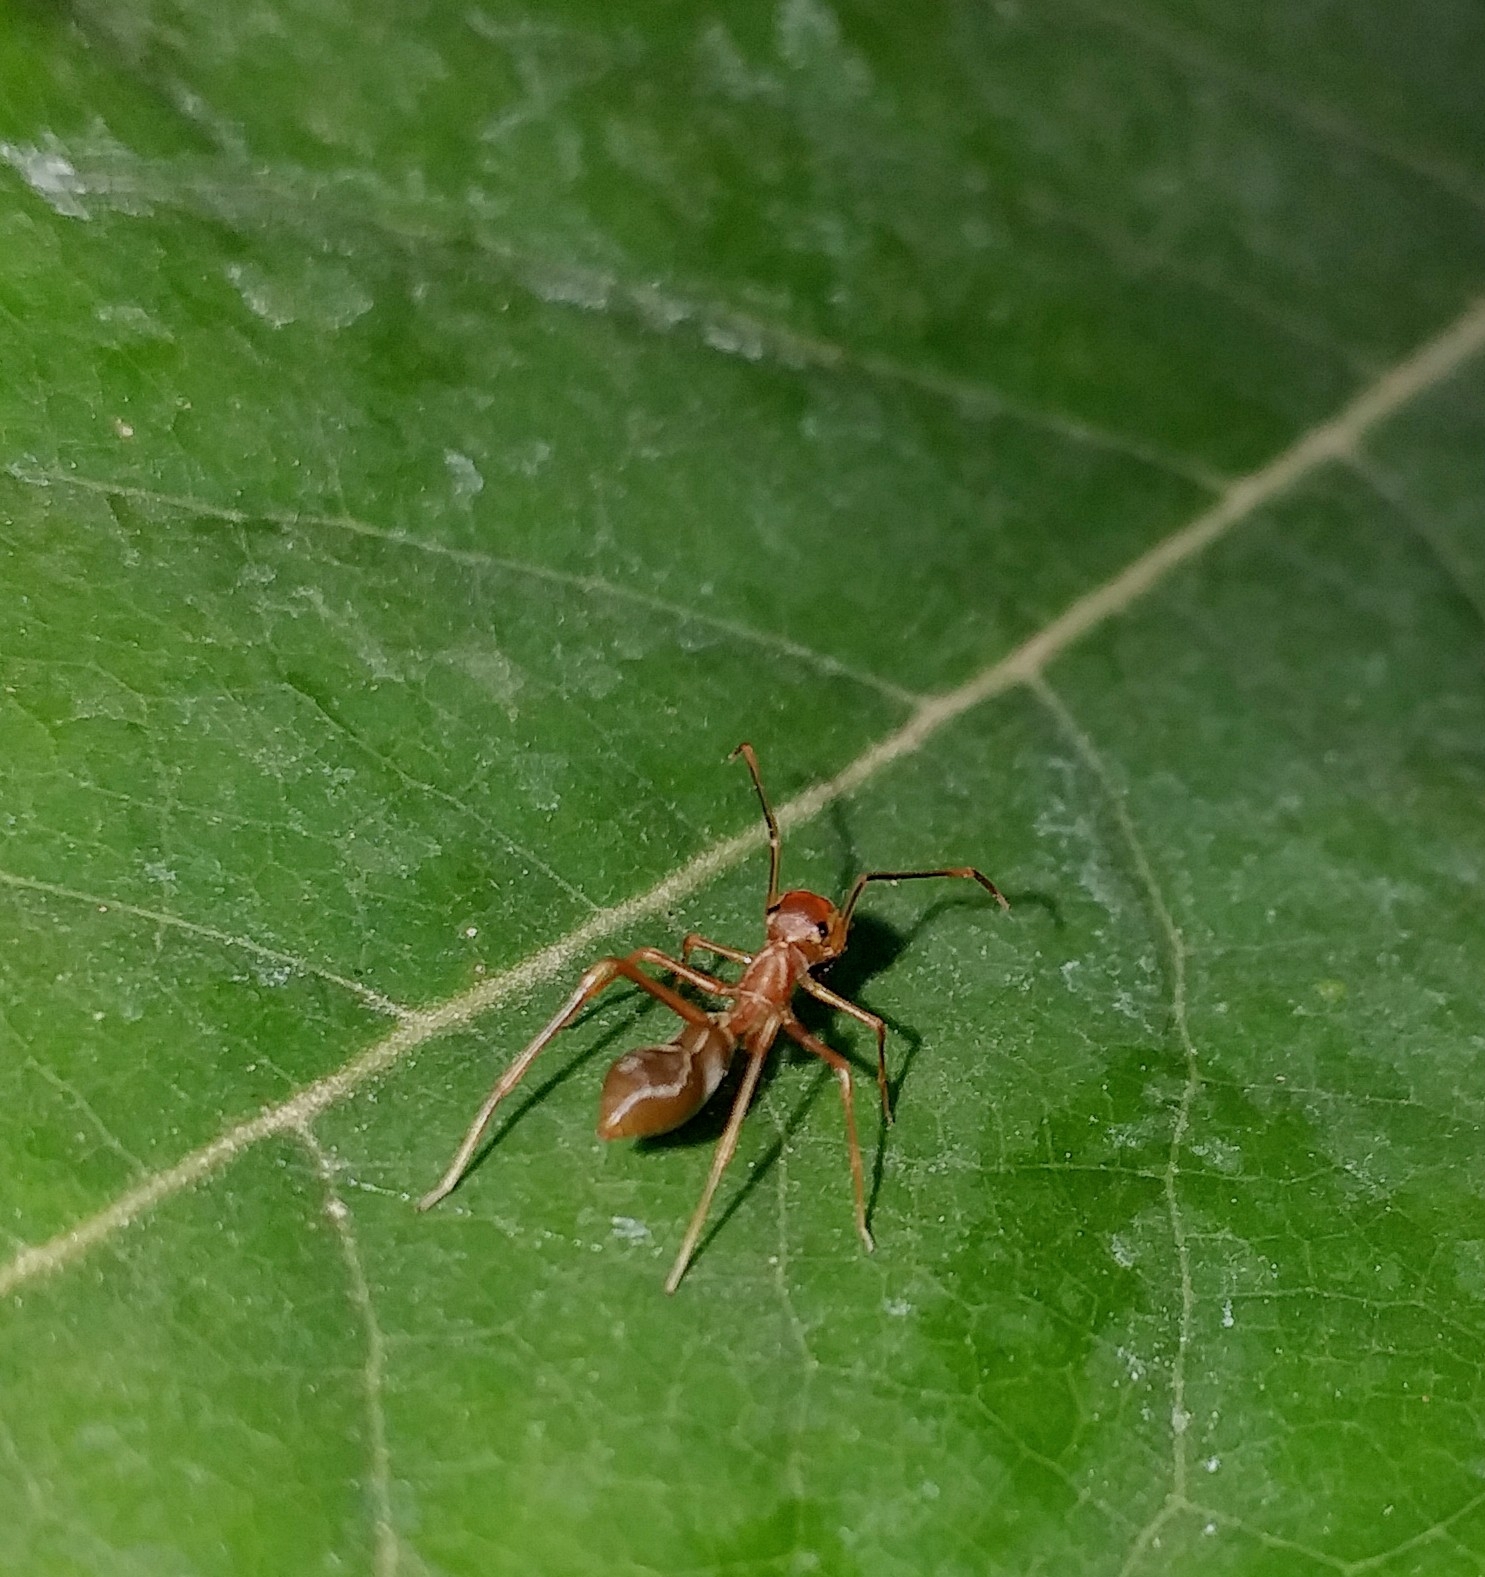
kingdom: Animalia
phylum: Arthropoda
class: Arachnida
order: Araneae
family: Salticidae
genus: Myrmaplata
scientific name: Myrmaplata plataleoides
